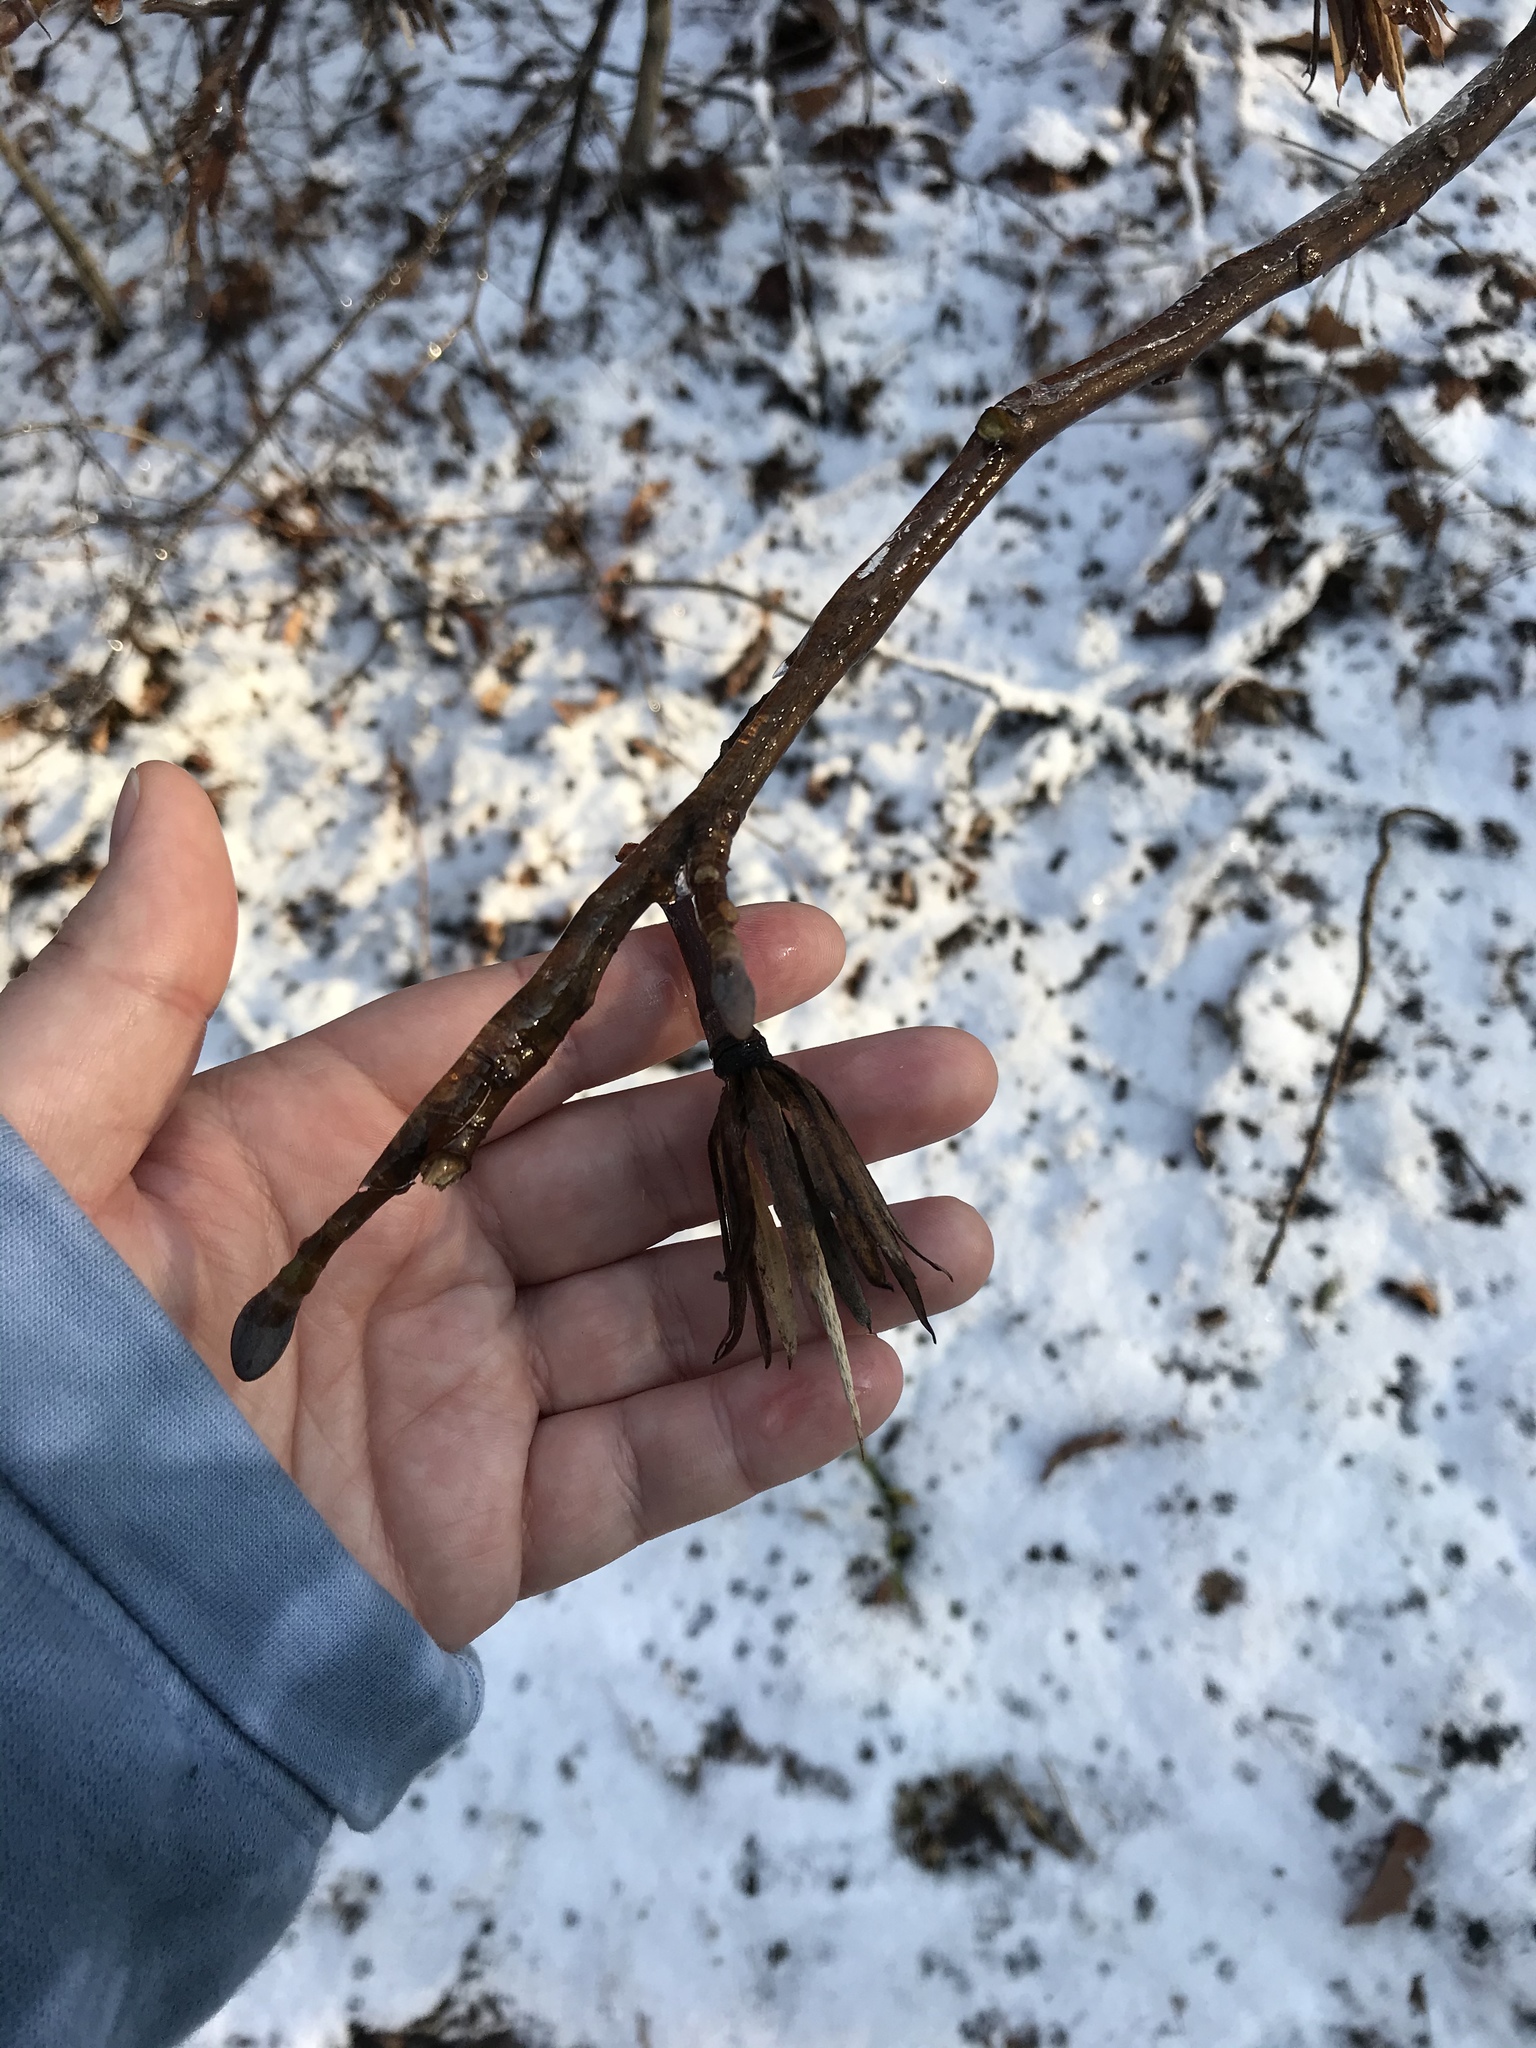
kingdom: Plantae
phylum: Tracheophyta
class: Magnoliopsida
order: Magnoliales
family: Magnoliaceae
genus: Liriodendron
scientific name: Liriodendron tulipifera
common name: Tulip tree
